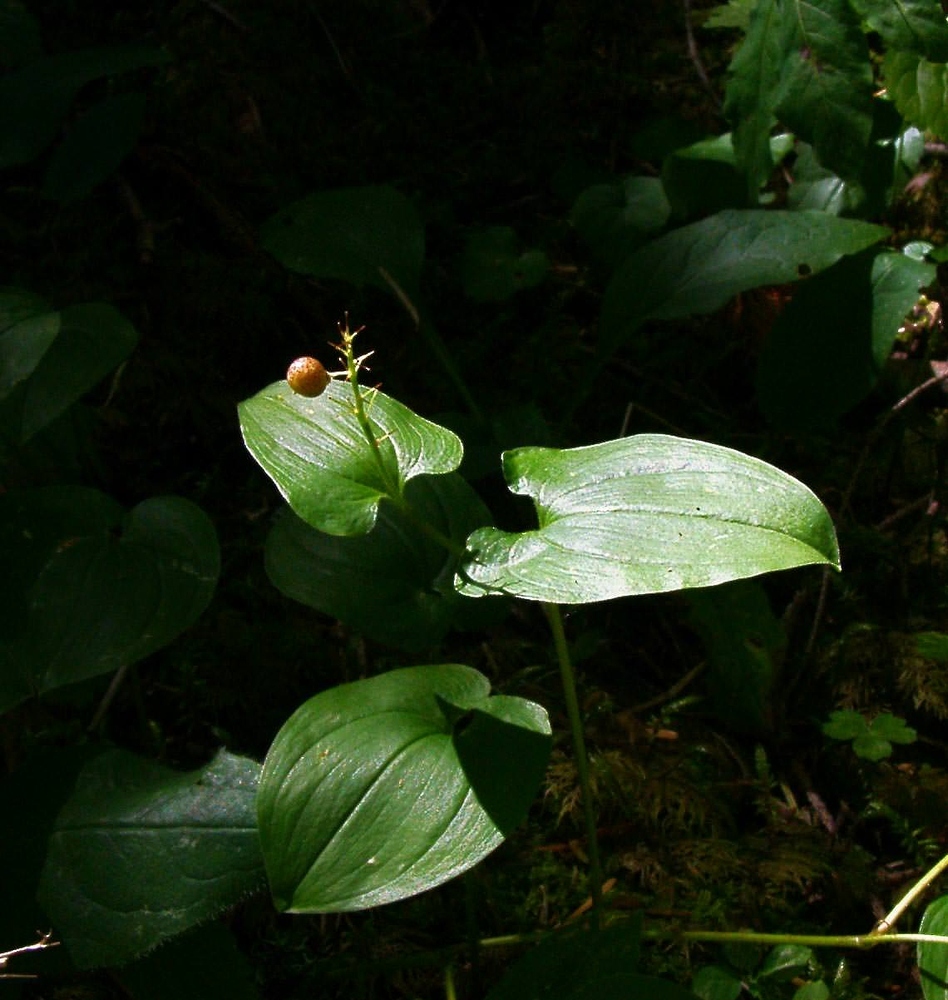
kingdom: Plantae
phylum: Tracheophyta
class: Liliopsida
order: Asparagales
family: Asparagaceae
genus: Maianthemum
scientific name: Maianthemum bifolium
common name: May lily
